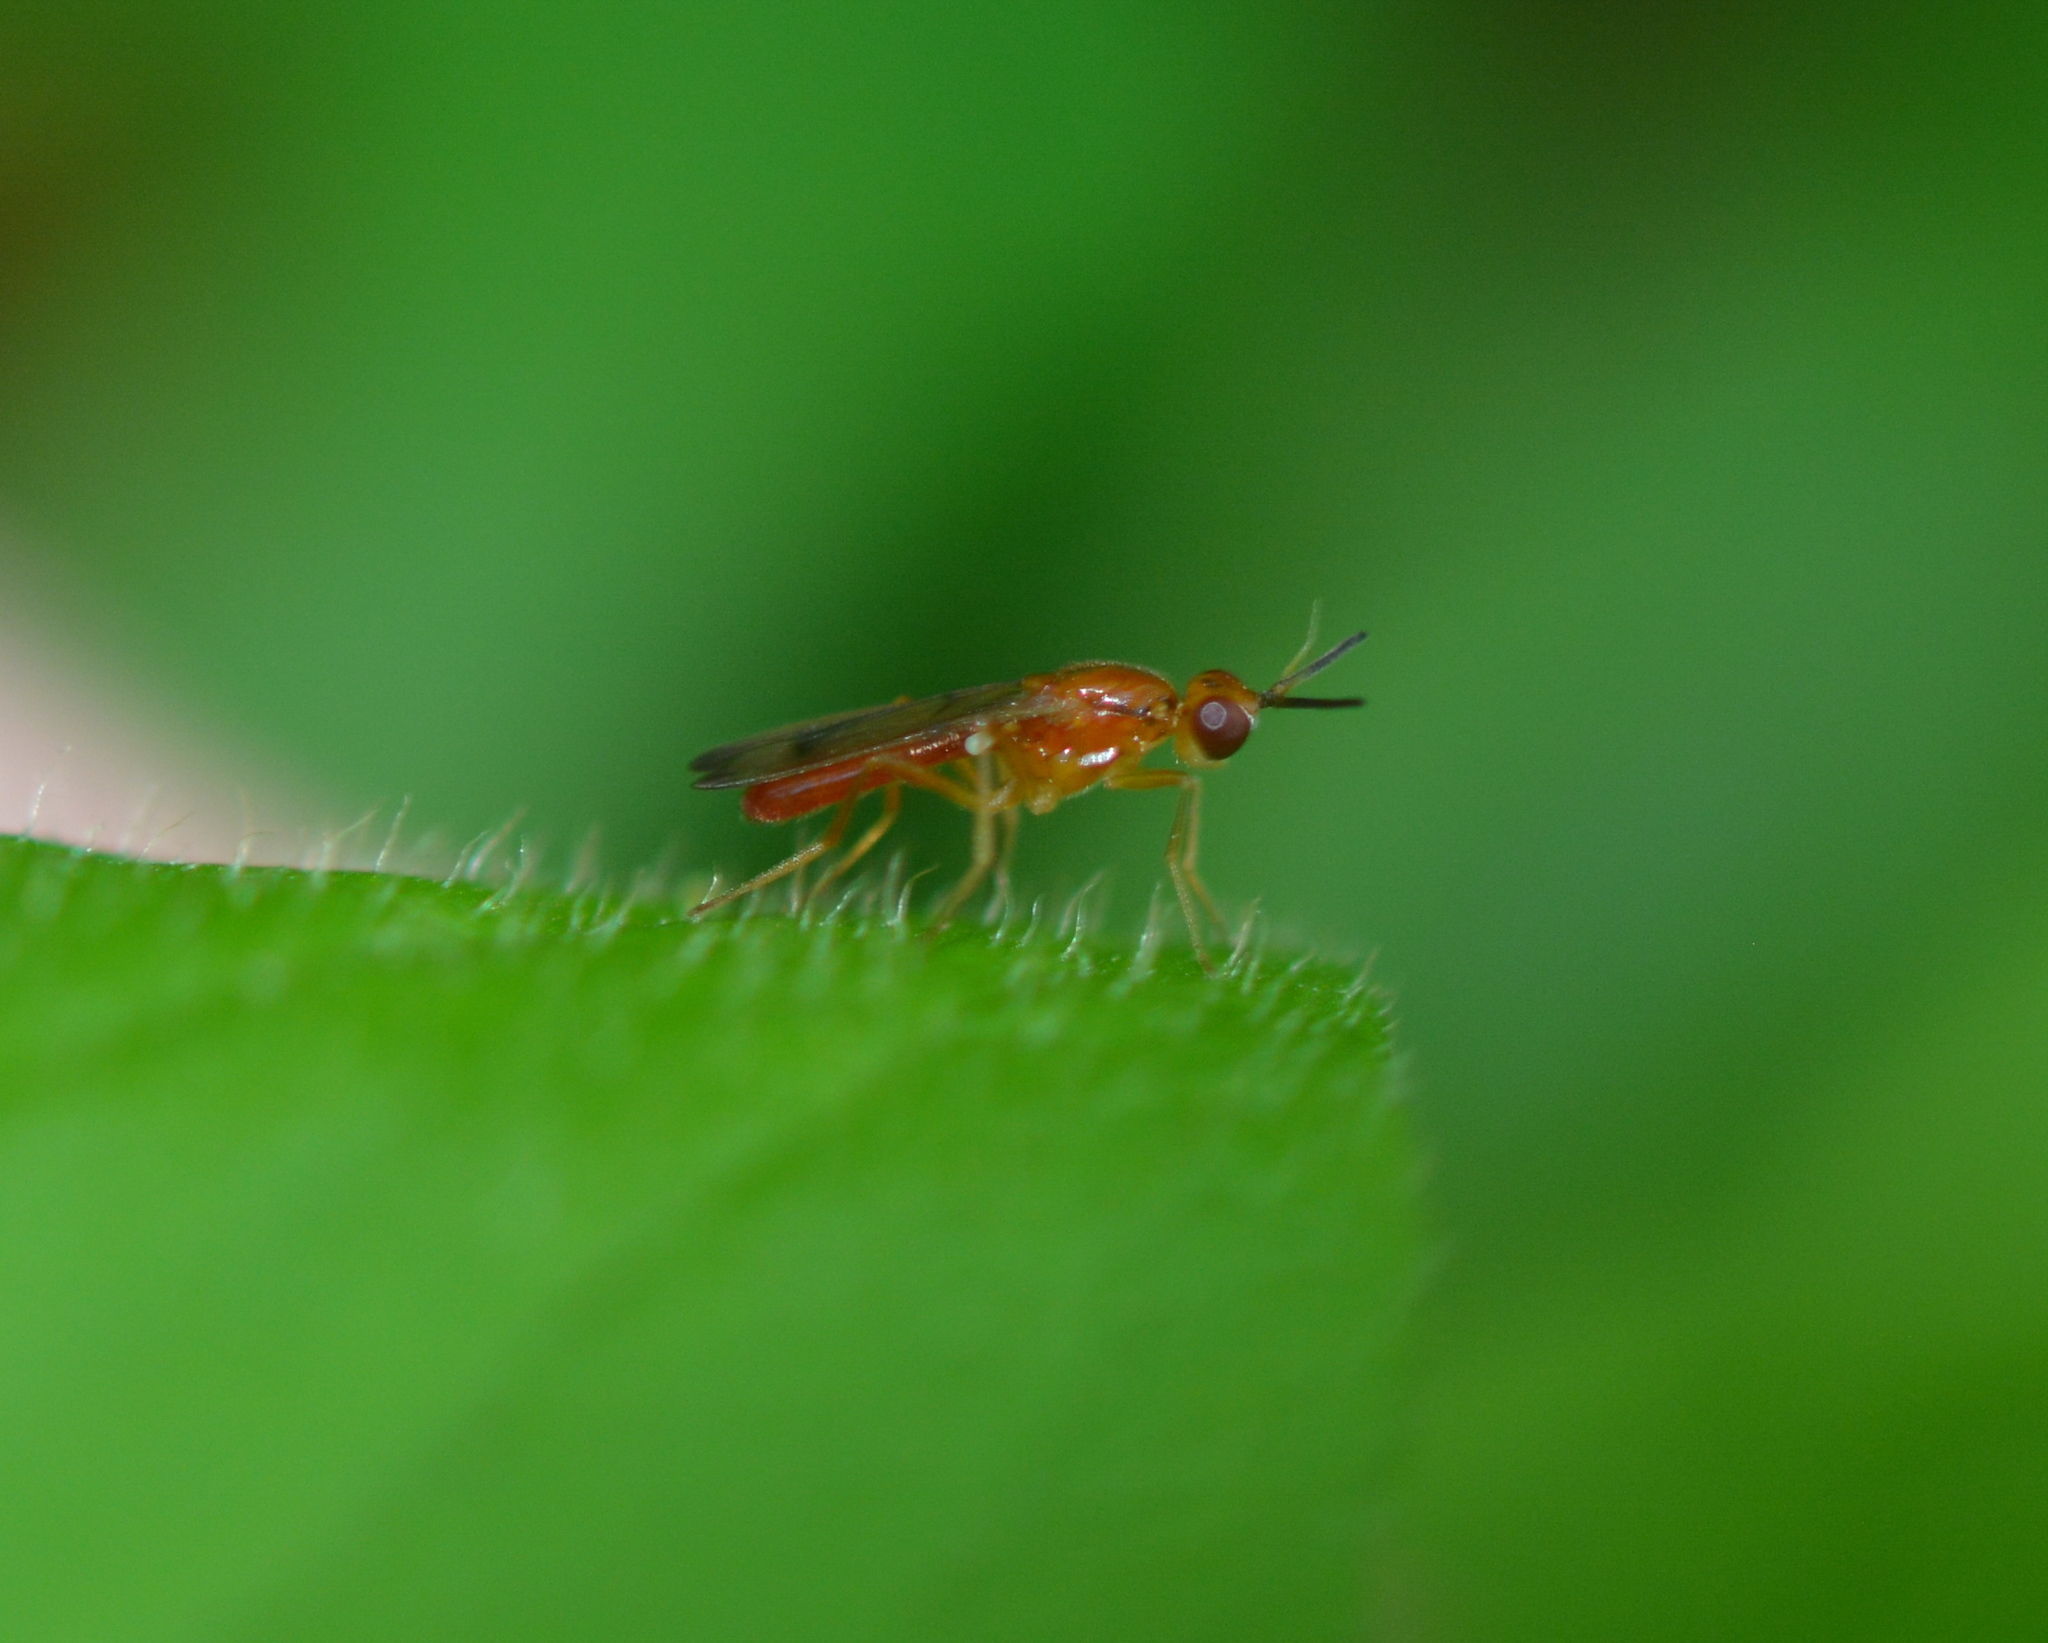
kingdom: Animalia
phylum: Arthropoda
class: Insecta
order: Diptera
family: Psilidae
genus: Loxocera
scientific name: Loxocera cylindrica
